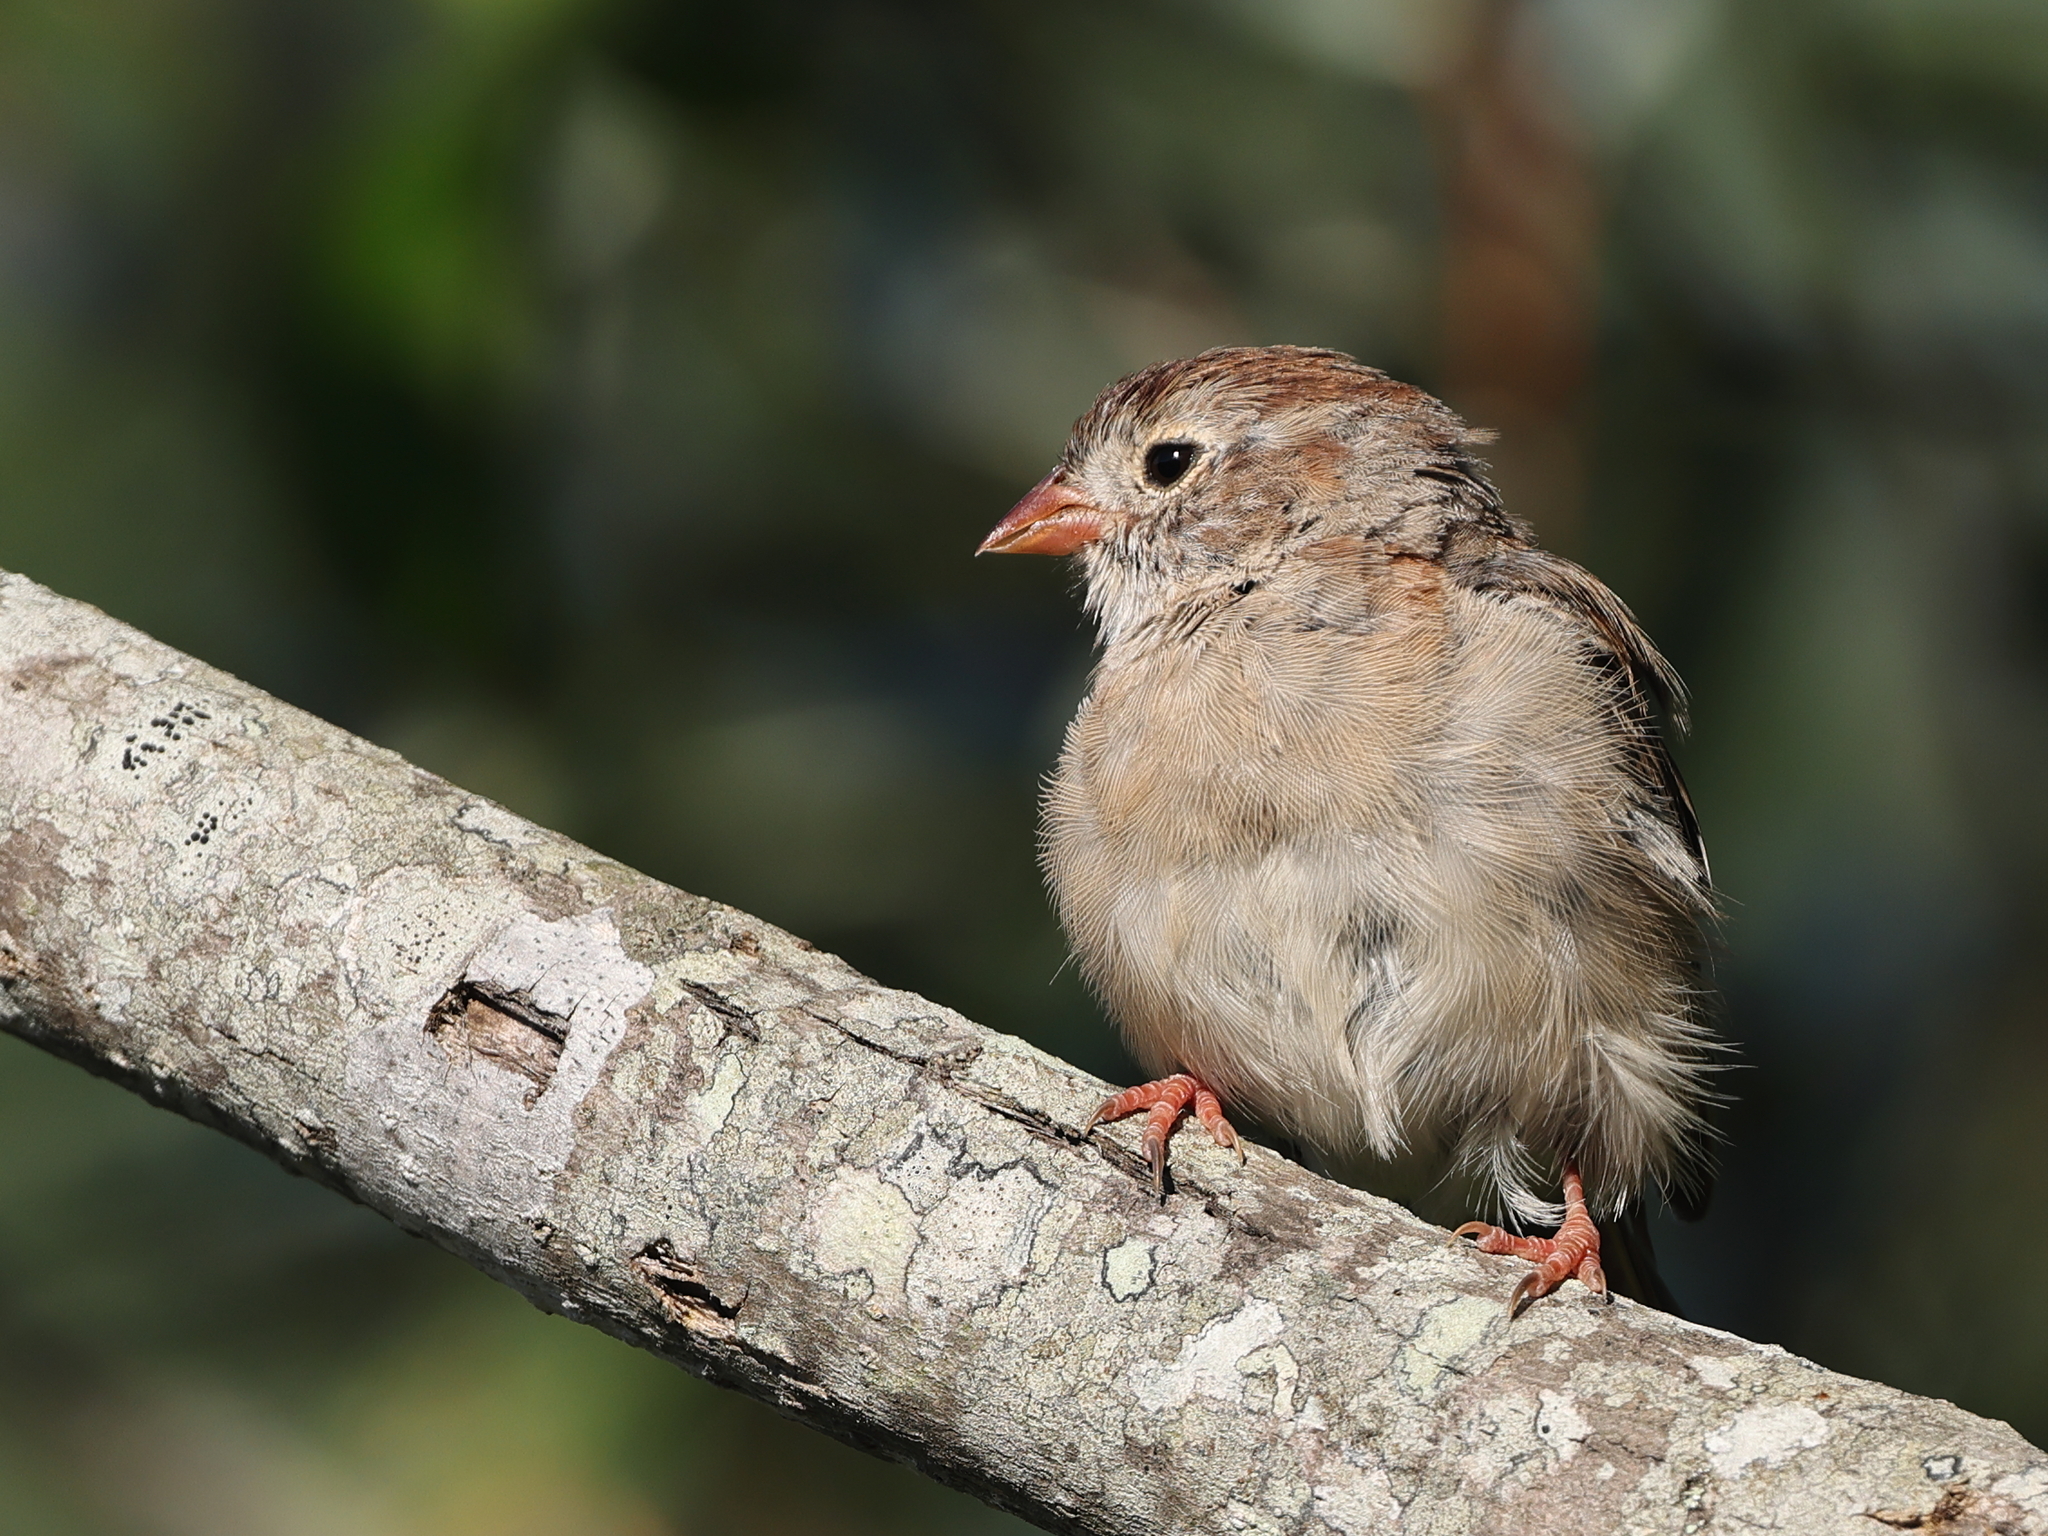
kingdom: Animalia
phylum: Chordata
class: Aves
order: Passeriformes
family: Passerellidae
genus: Spizella
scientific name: Spizella pusilla
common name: Field sparrow
